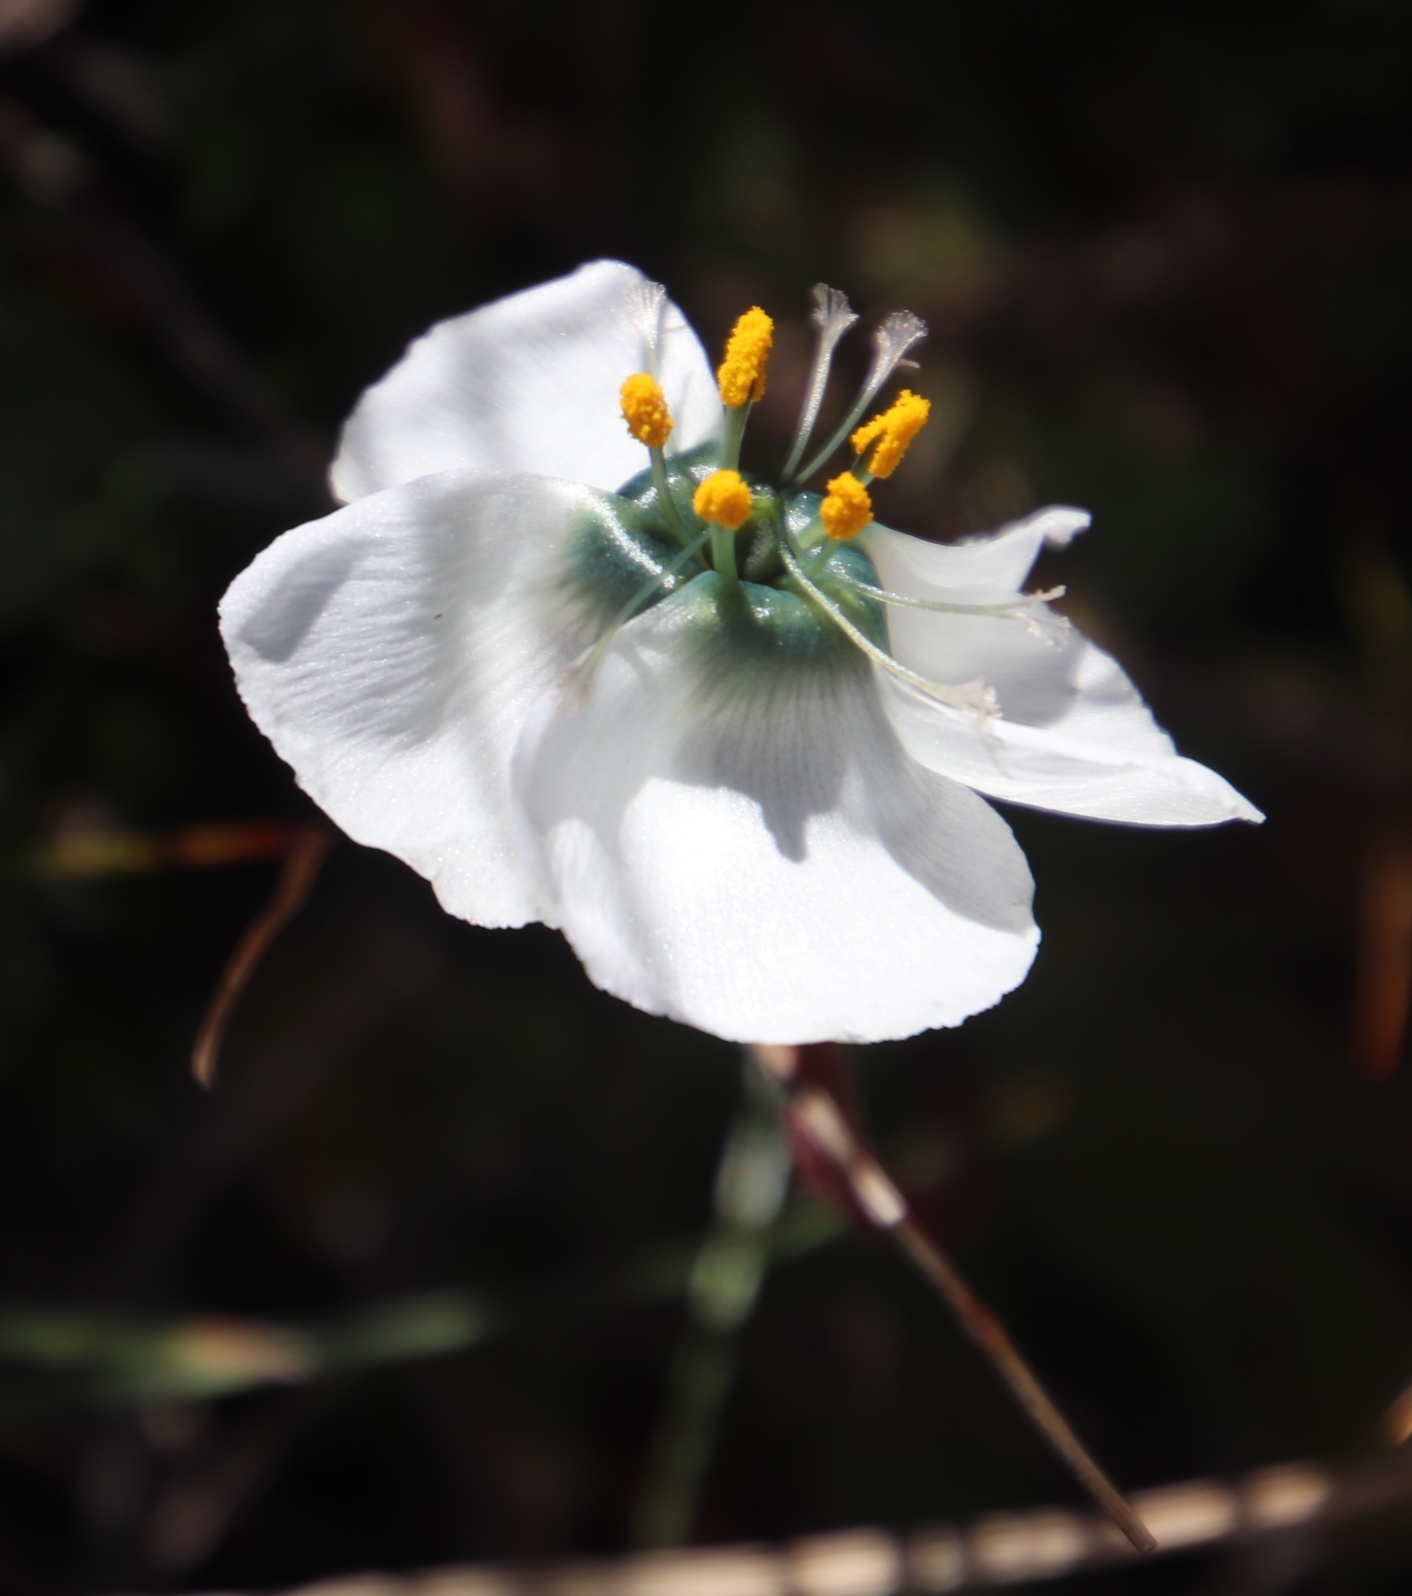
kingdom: Plantae
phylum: Tracheophyta
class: Magnoliopsida
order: Caryophyllales
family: Droseraceae
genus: Drosera
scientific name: Drosera pauciflora
